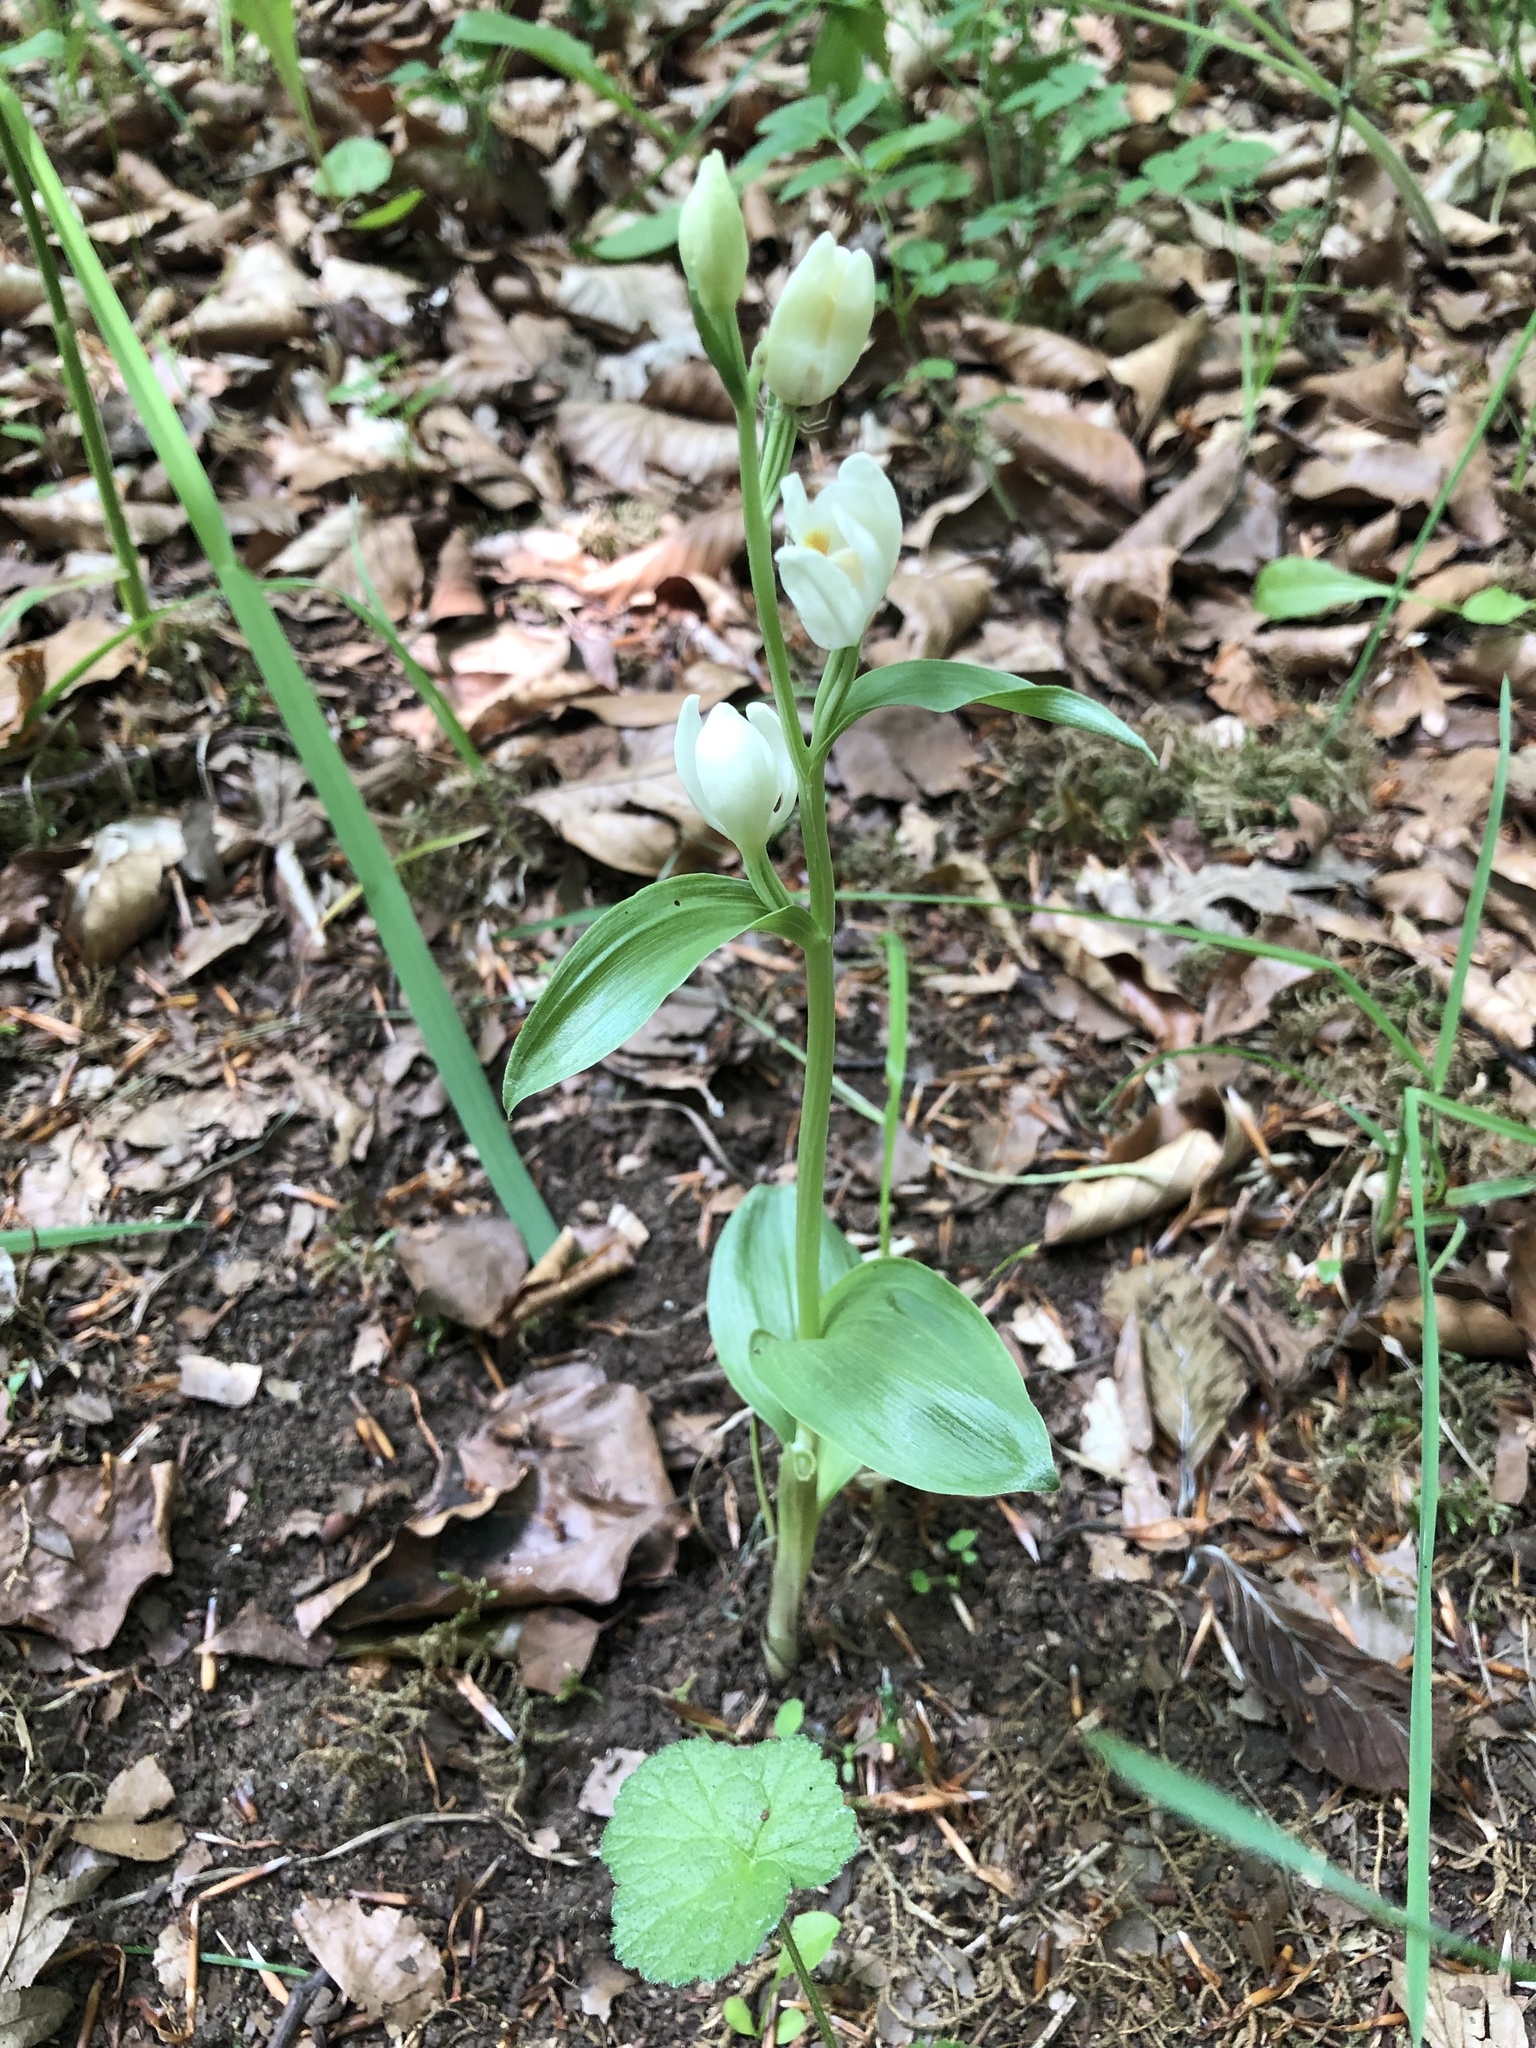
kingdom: Plantae
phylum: Tracheophyta
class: Liliopsida
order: Asparagales
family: Orchidaceae
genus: Cephalanthera
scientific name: Cephalanthera damasonium
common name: White helleborine
